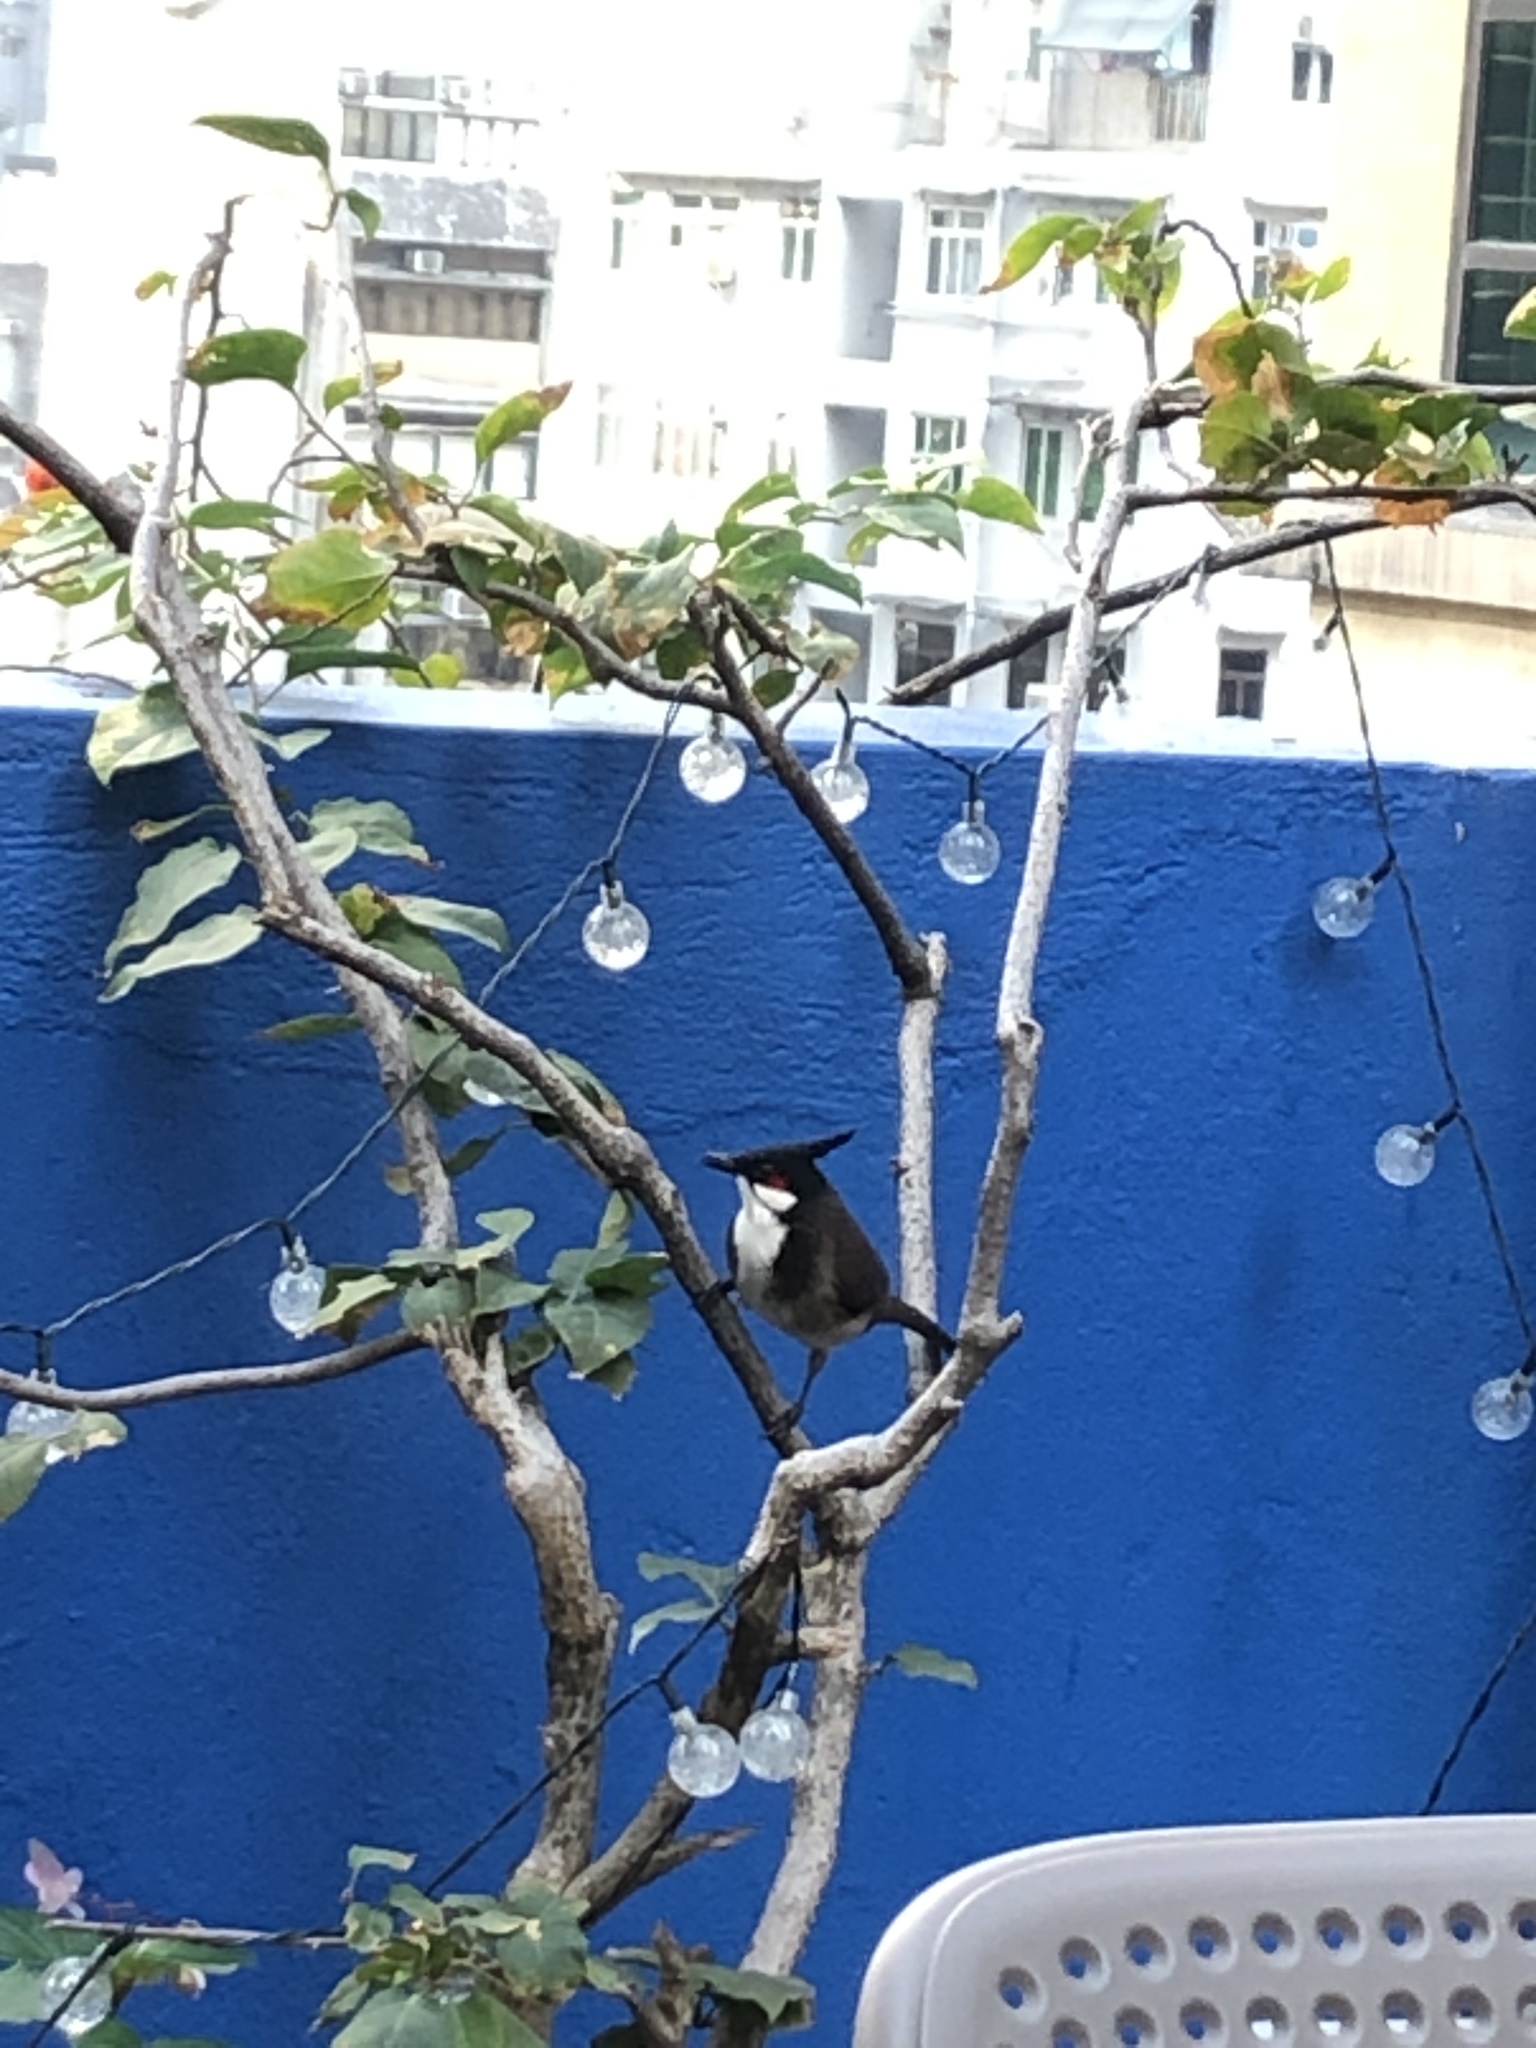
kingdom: Animalia
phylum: Chordata
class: Aves
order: Passeriformes
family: Pycnonotidae
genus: Pycnonotus
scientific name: Pycnonotus jocosus
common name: Red-whiskered bulbul
